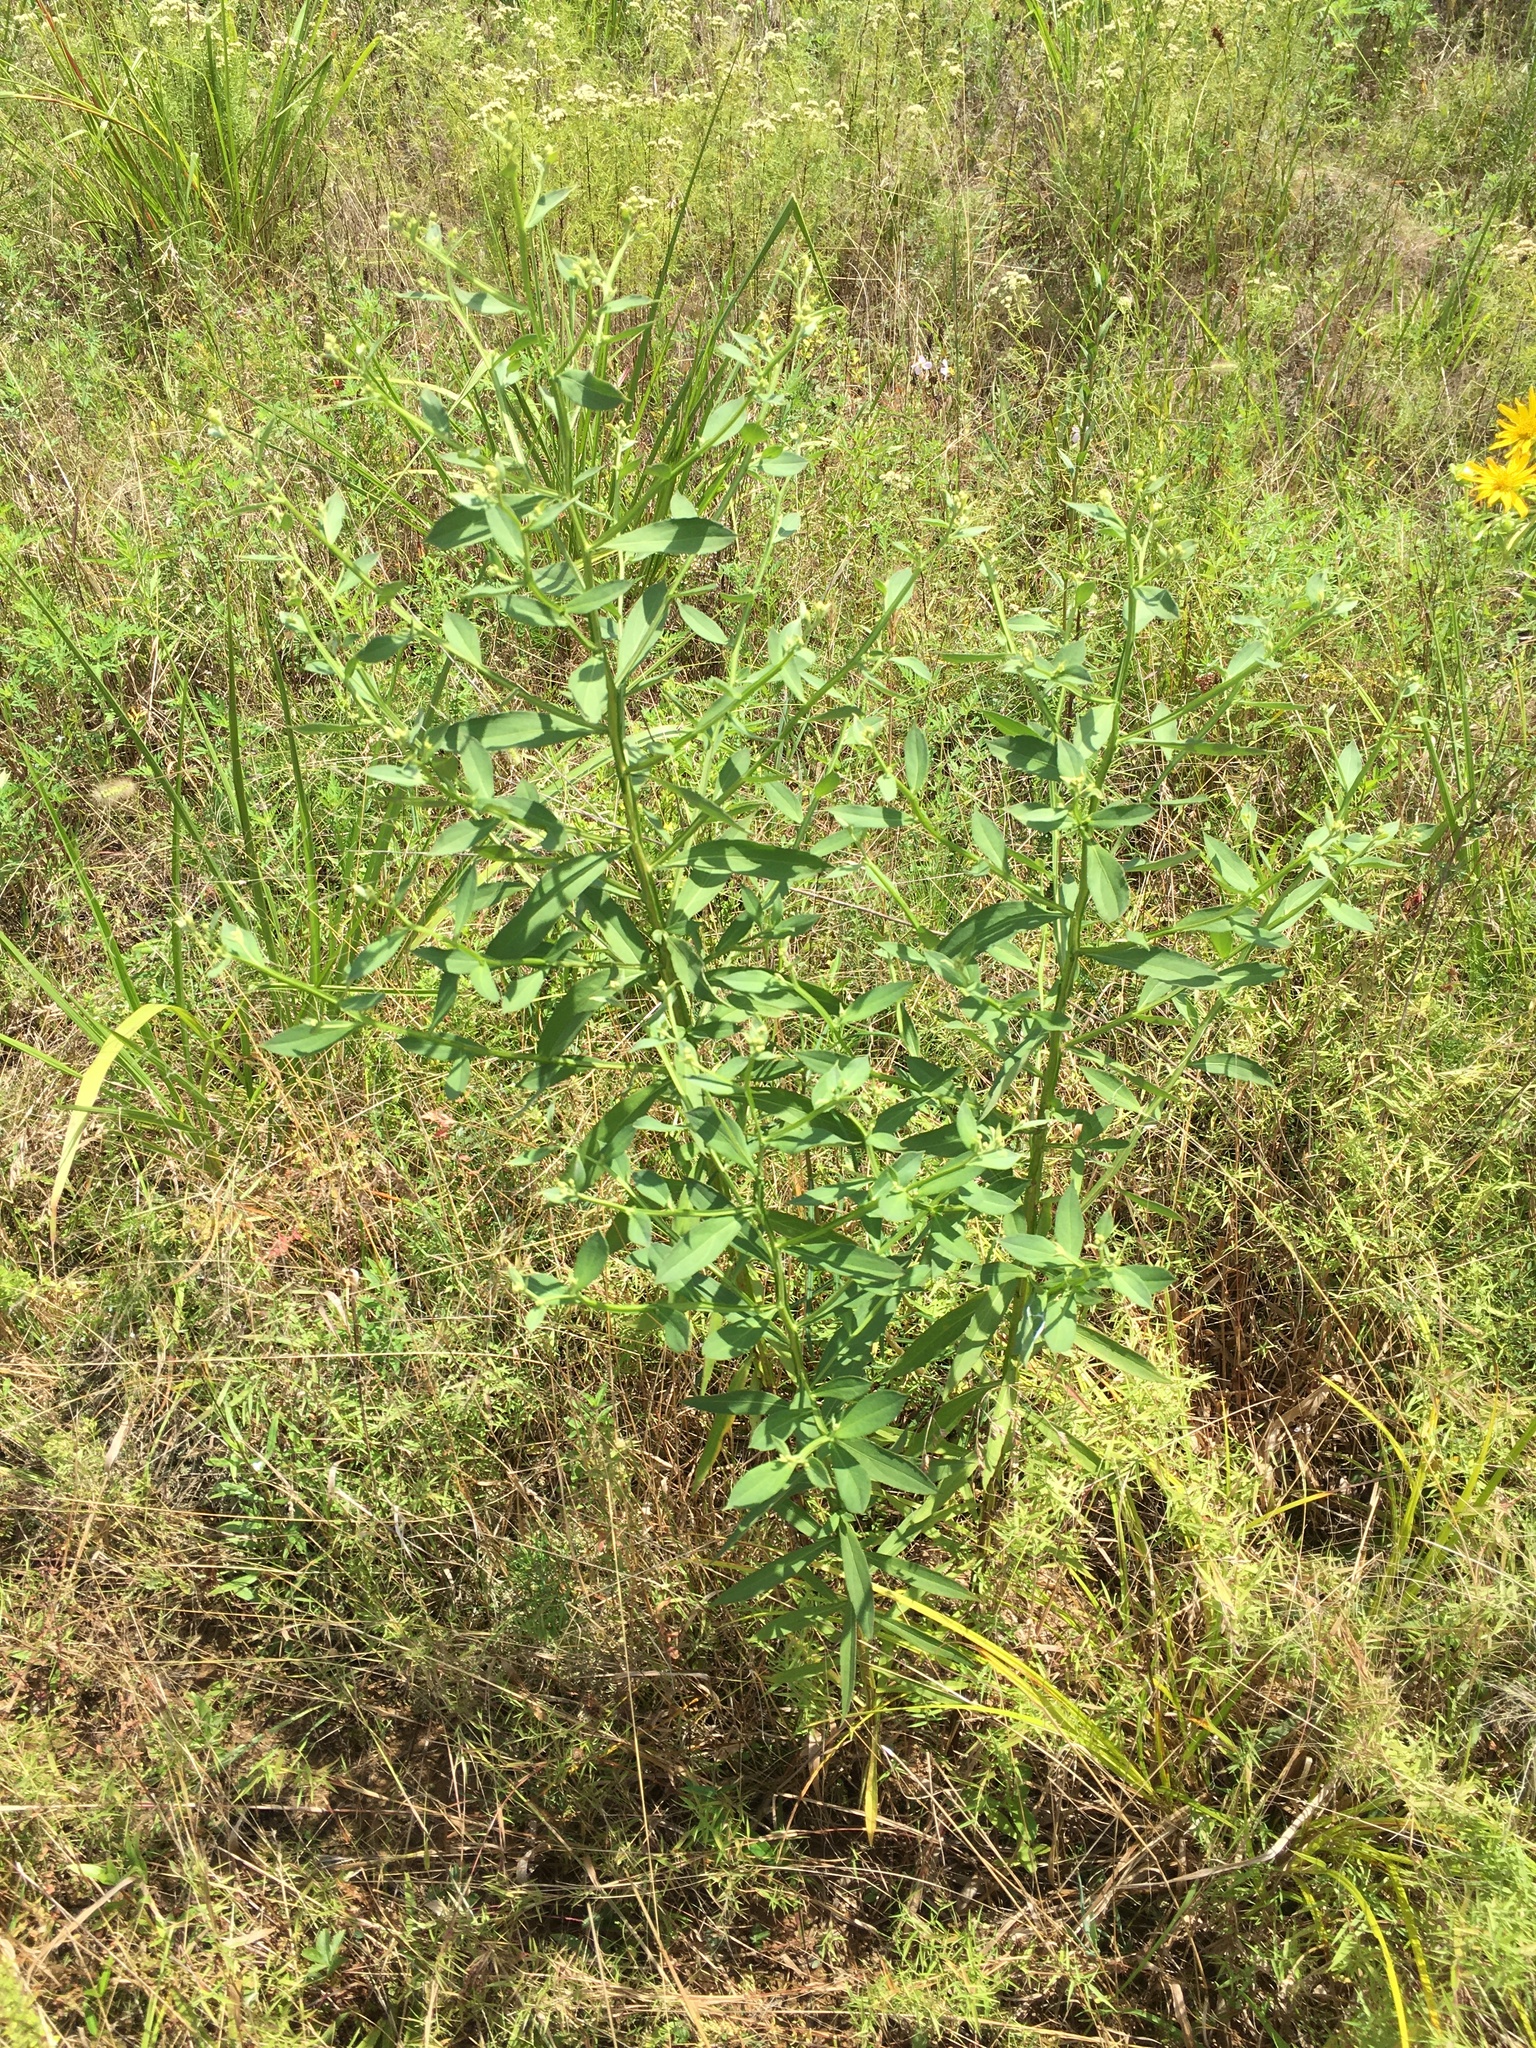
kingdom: Plantae
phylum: Tracheophyta
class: Magnoliopsida
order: Asterales
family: Asteraceae
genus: Helenium
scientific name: Helenium autumnale
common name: Sneezeweed
